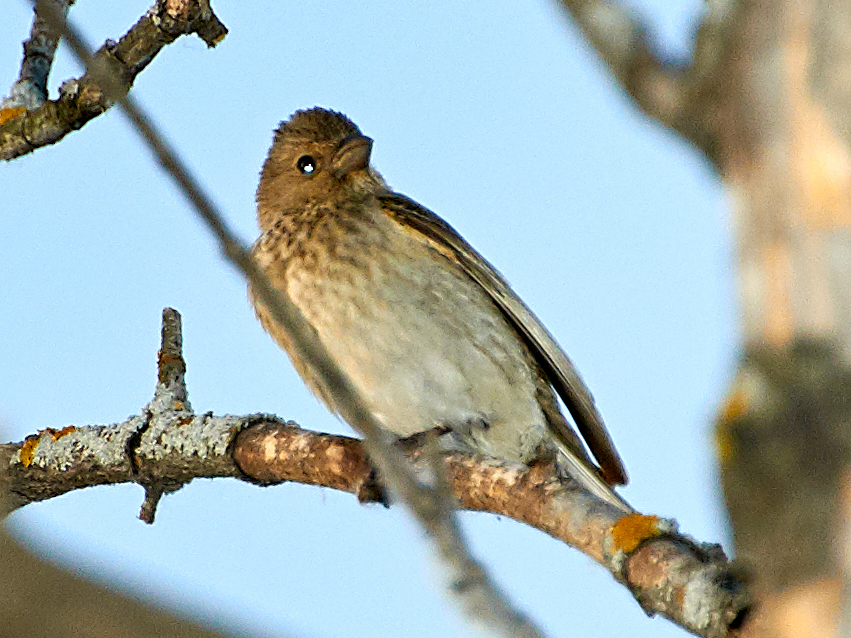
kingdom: Animalia
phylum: Chordata
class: Aves
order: Passeriformes
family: Fringillidae
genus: Carpodacus
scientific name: Carpodacus erythrinus
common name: Common rosefinch
